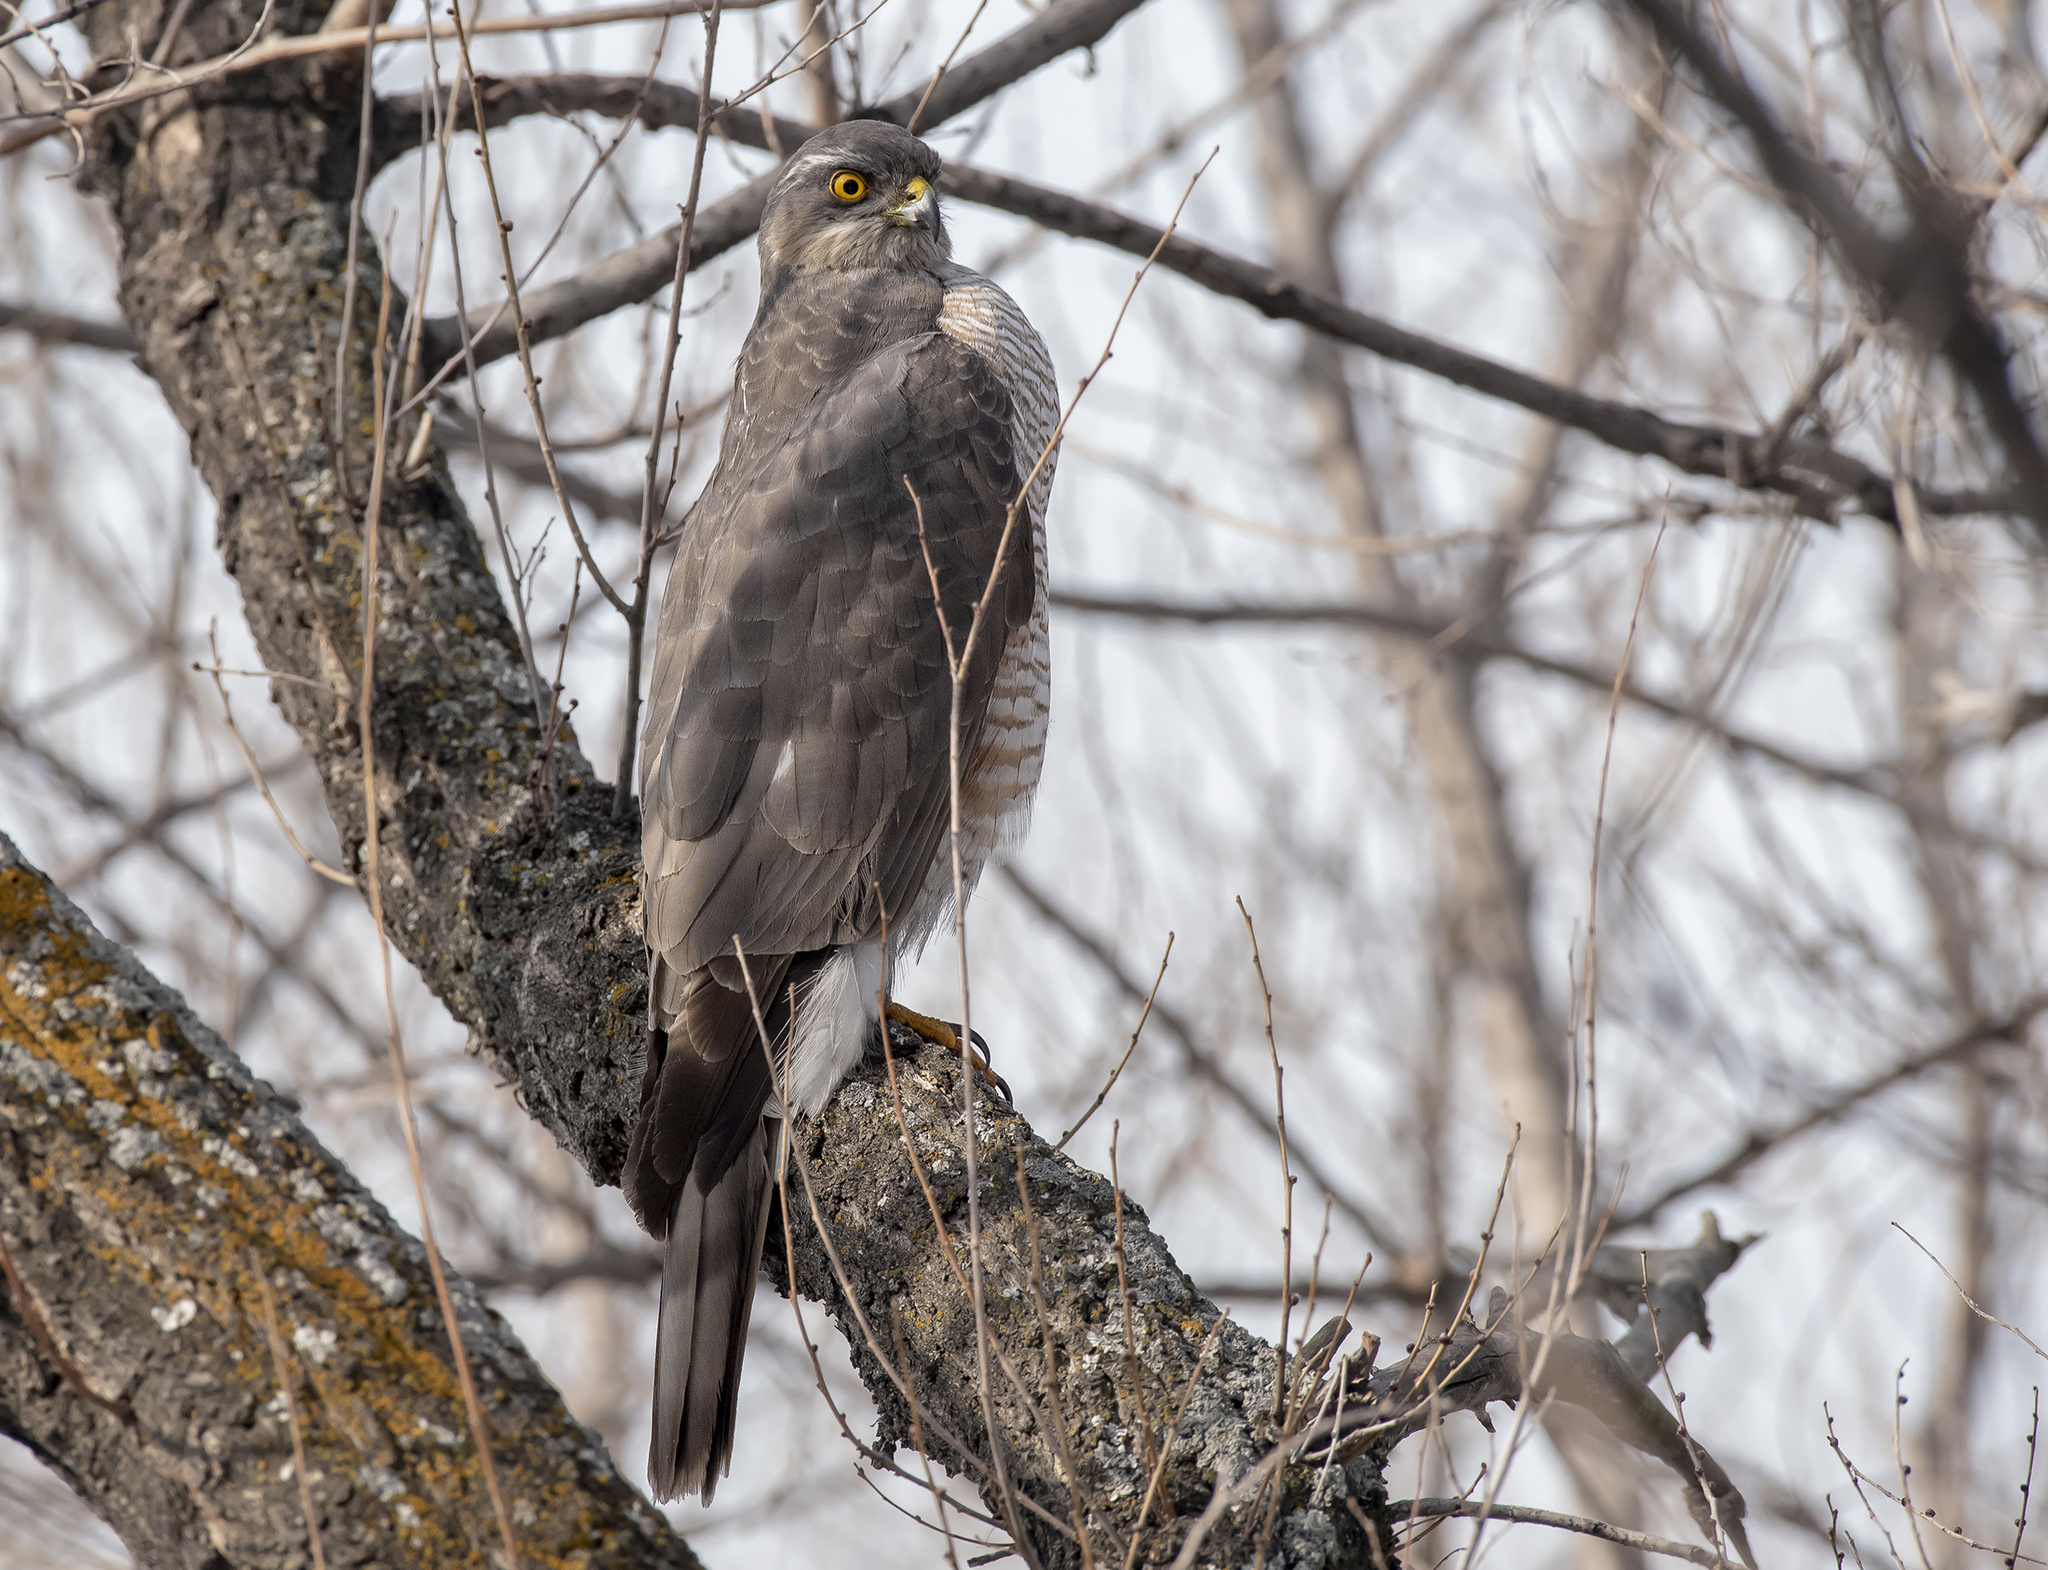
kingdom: Animalia
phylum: Chordata
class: Aves
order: Accipitriformes
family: Accipitridae
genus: Accipiter
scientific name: Accipiter nisus
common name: Eurasian sparrowhawk
